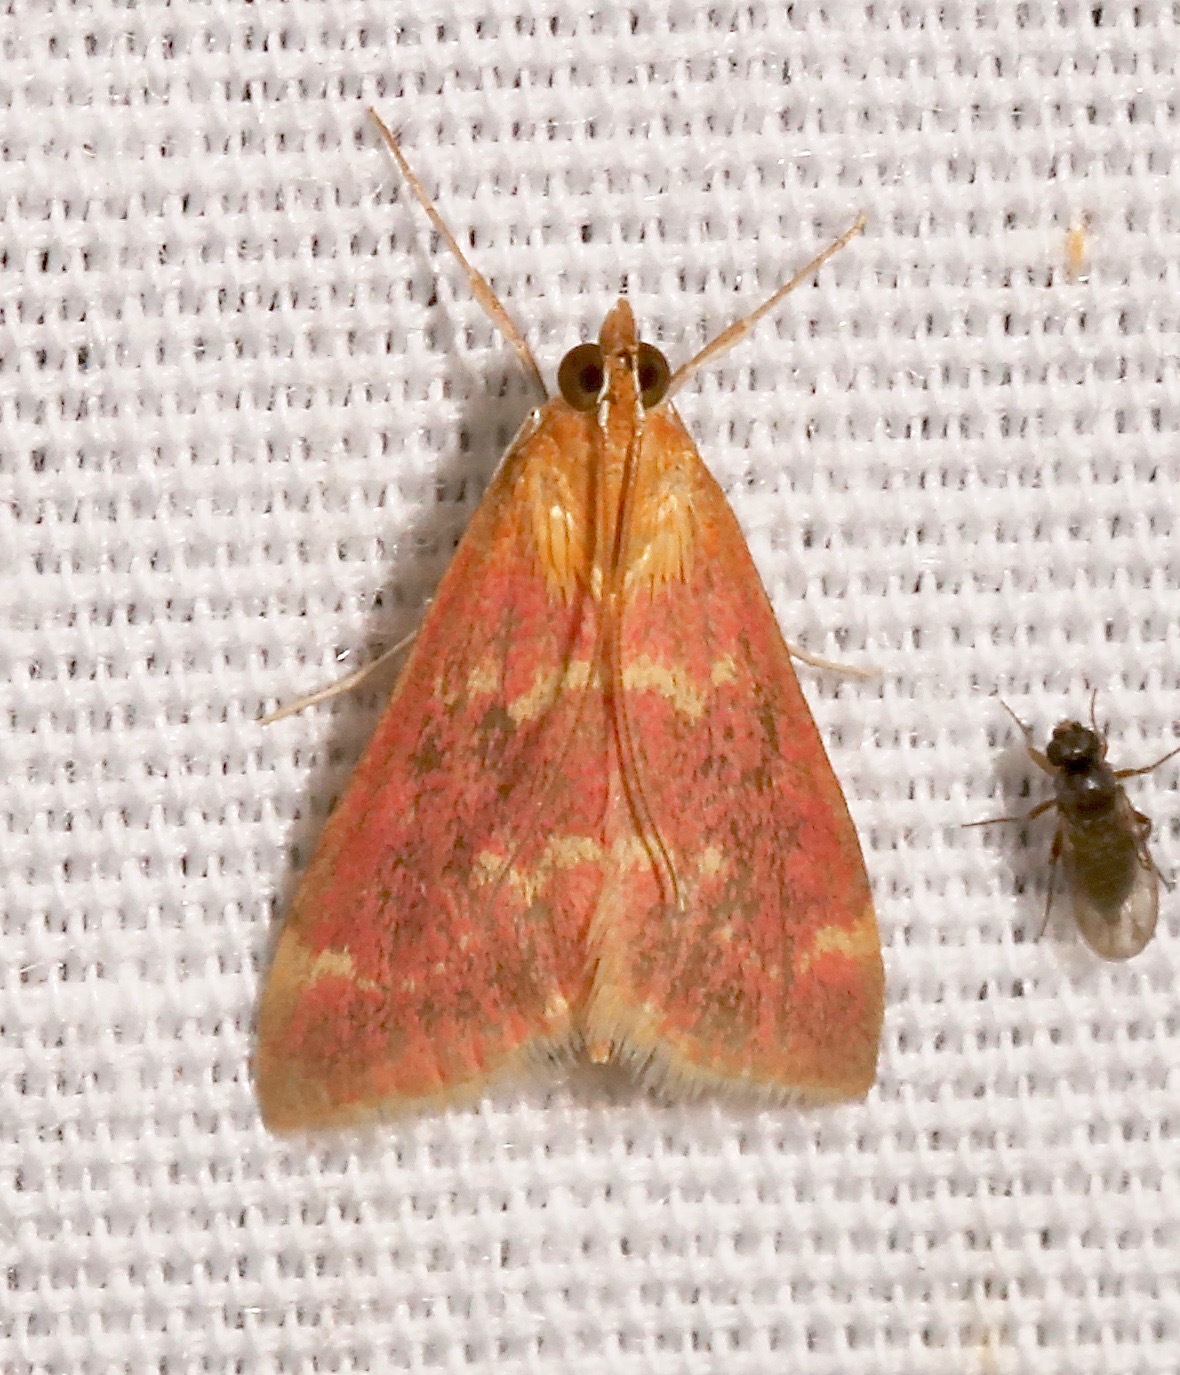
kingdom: Animalia
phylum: Arthropoda
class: Insecta
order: Lepidoptera
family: Crambidae
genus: Pyrausta
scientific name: Pyrausta signatalis
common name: Raspberry pyrausta moth
